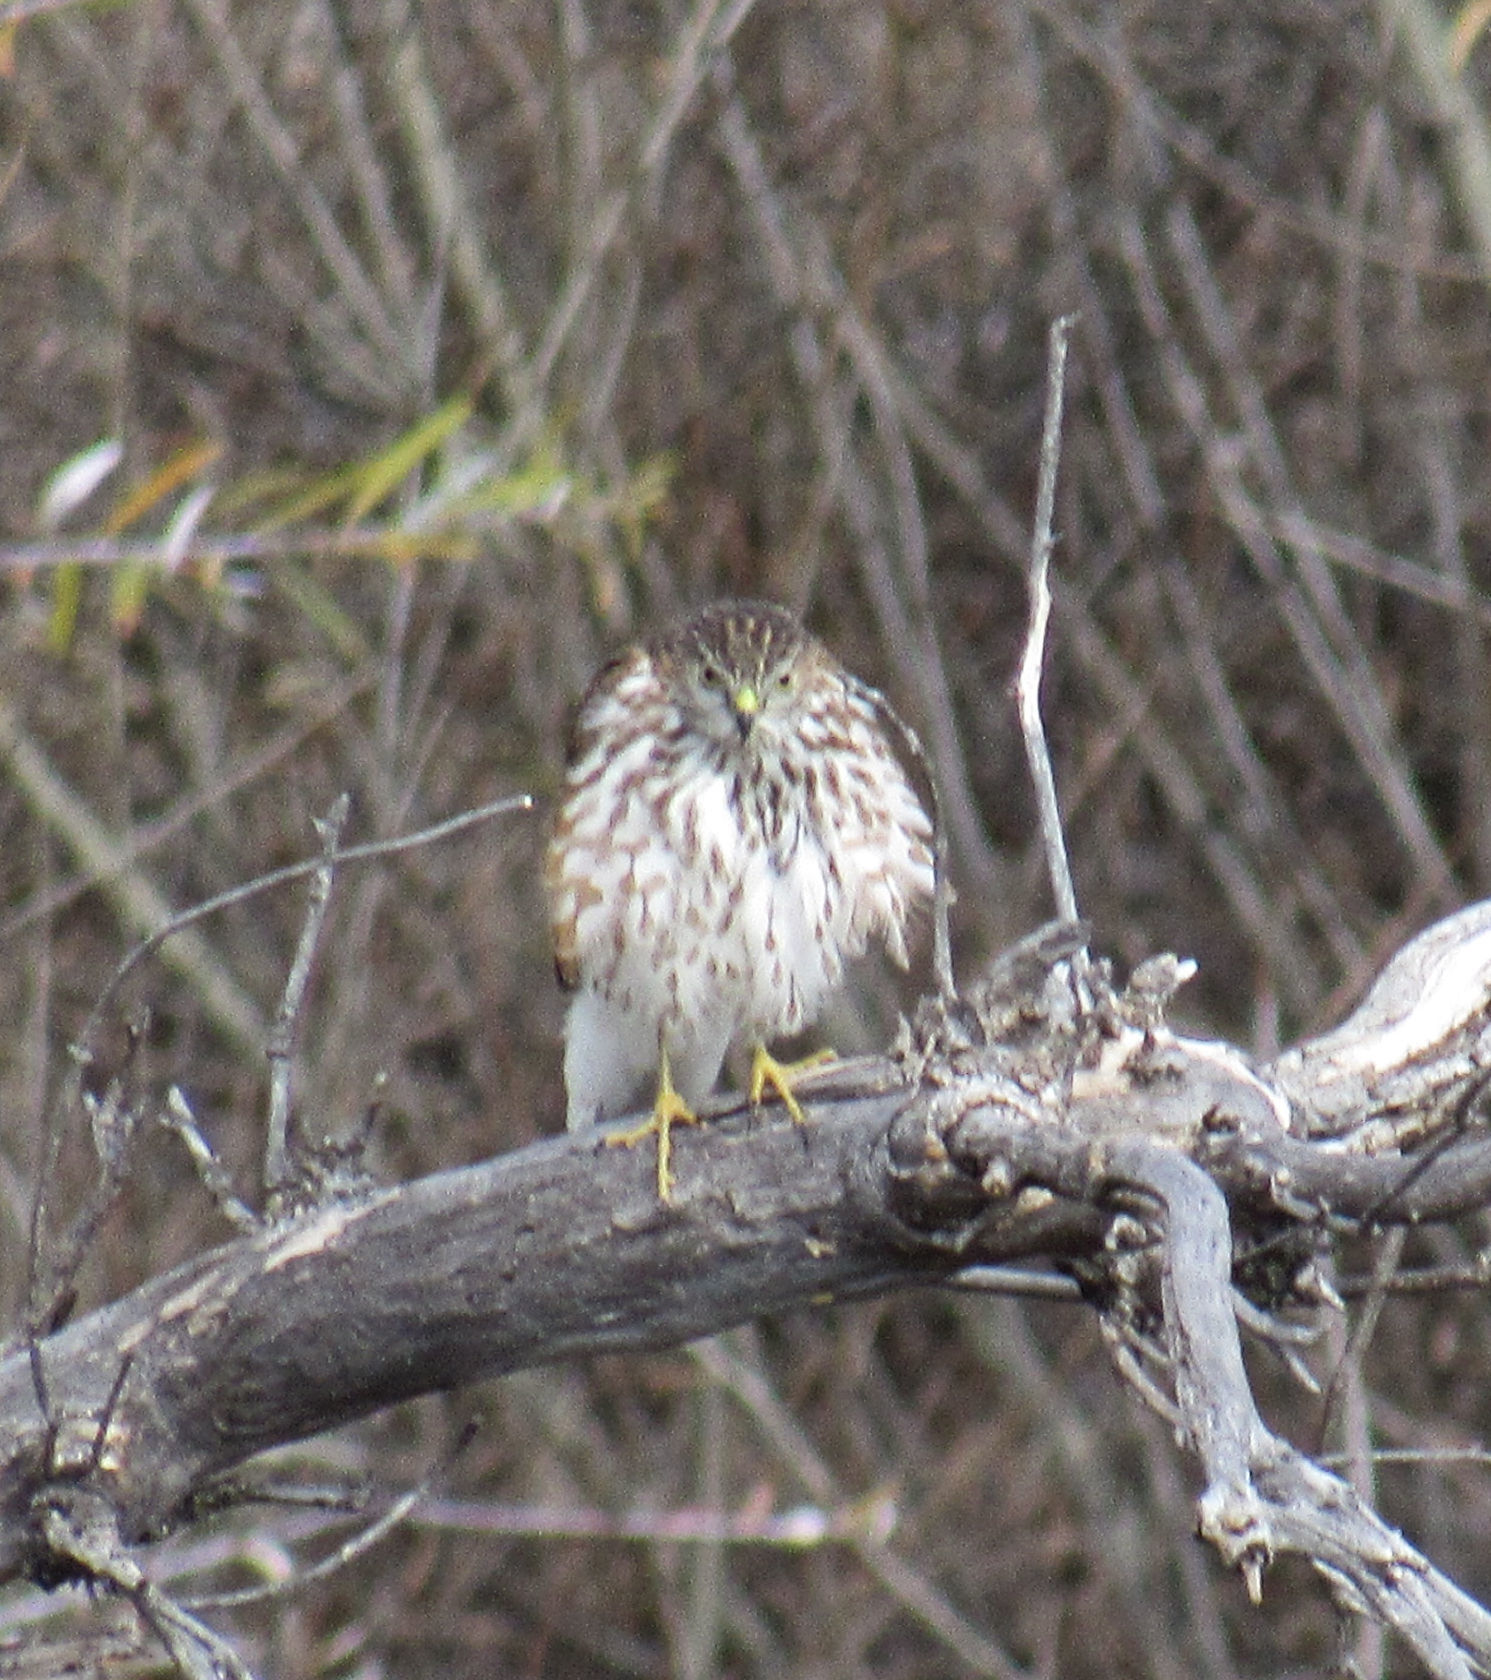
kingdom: Animalia
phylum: Chordata
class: Aves
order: Accipitriformes
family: Accipitridae
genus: Accipiter
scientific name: Accipiter striatus
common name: Sharp-shinned hawk
